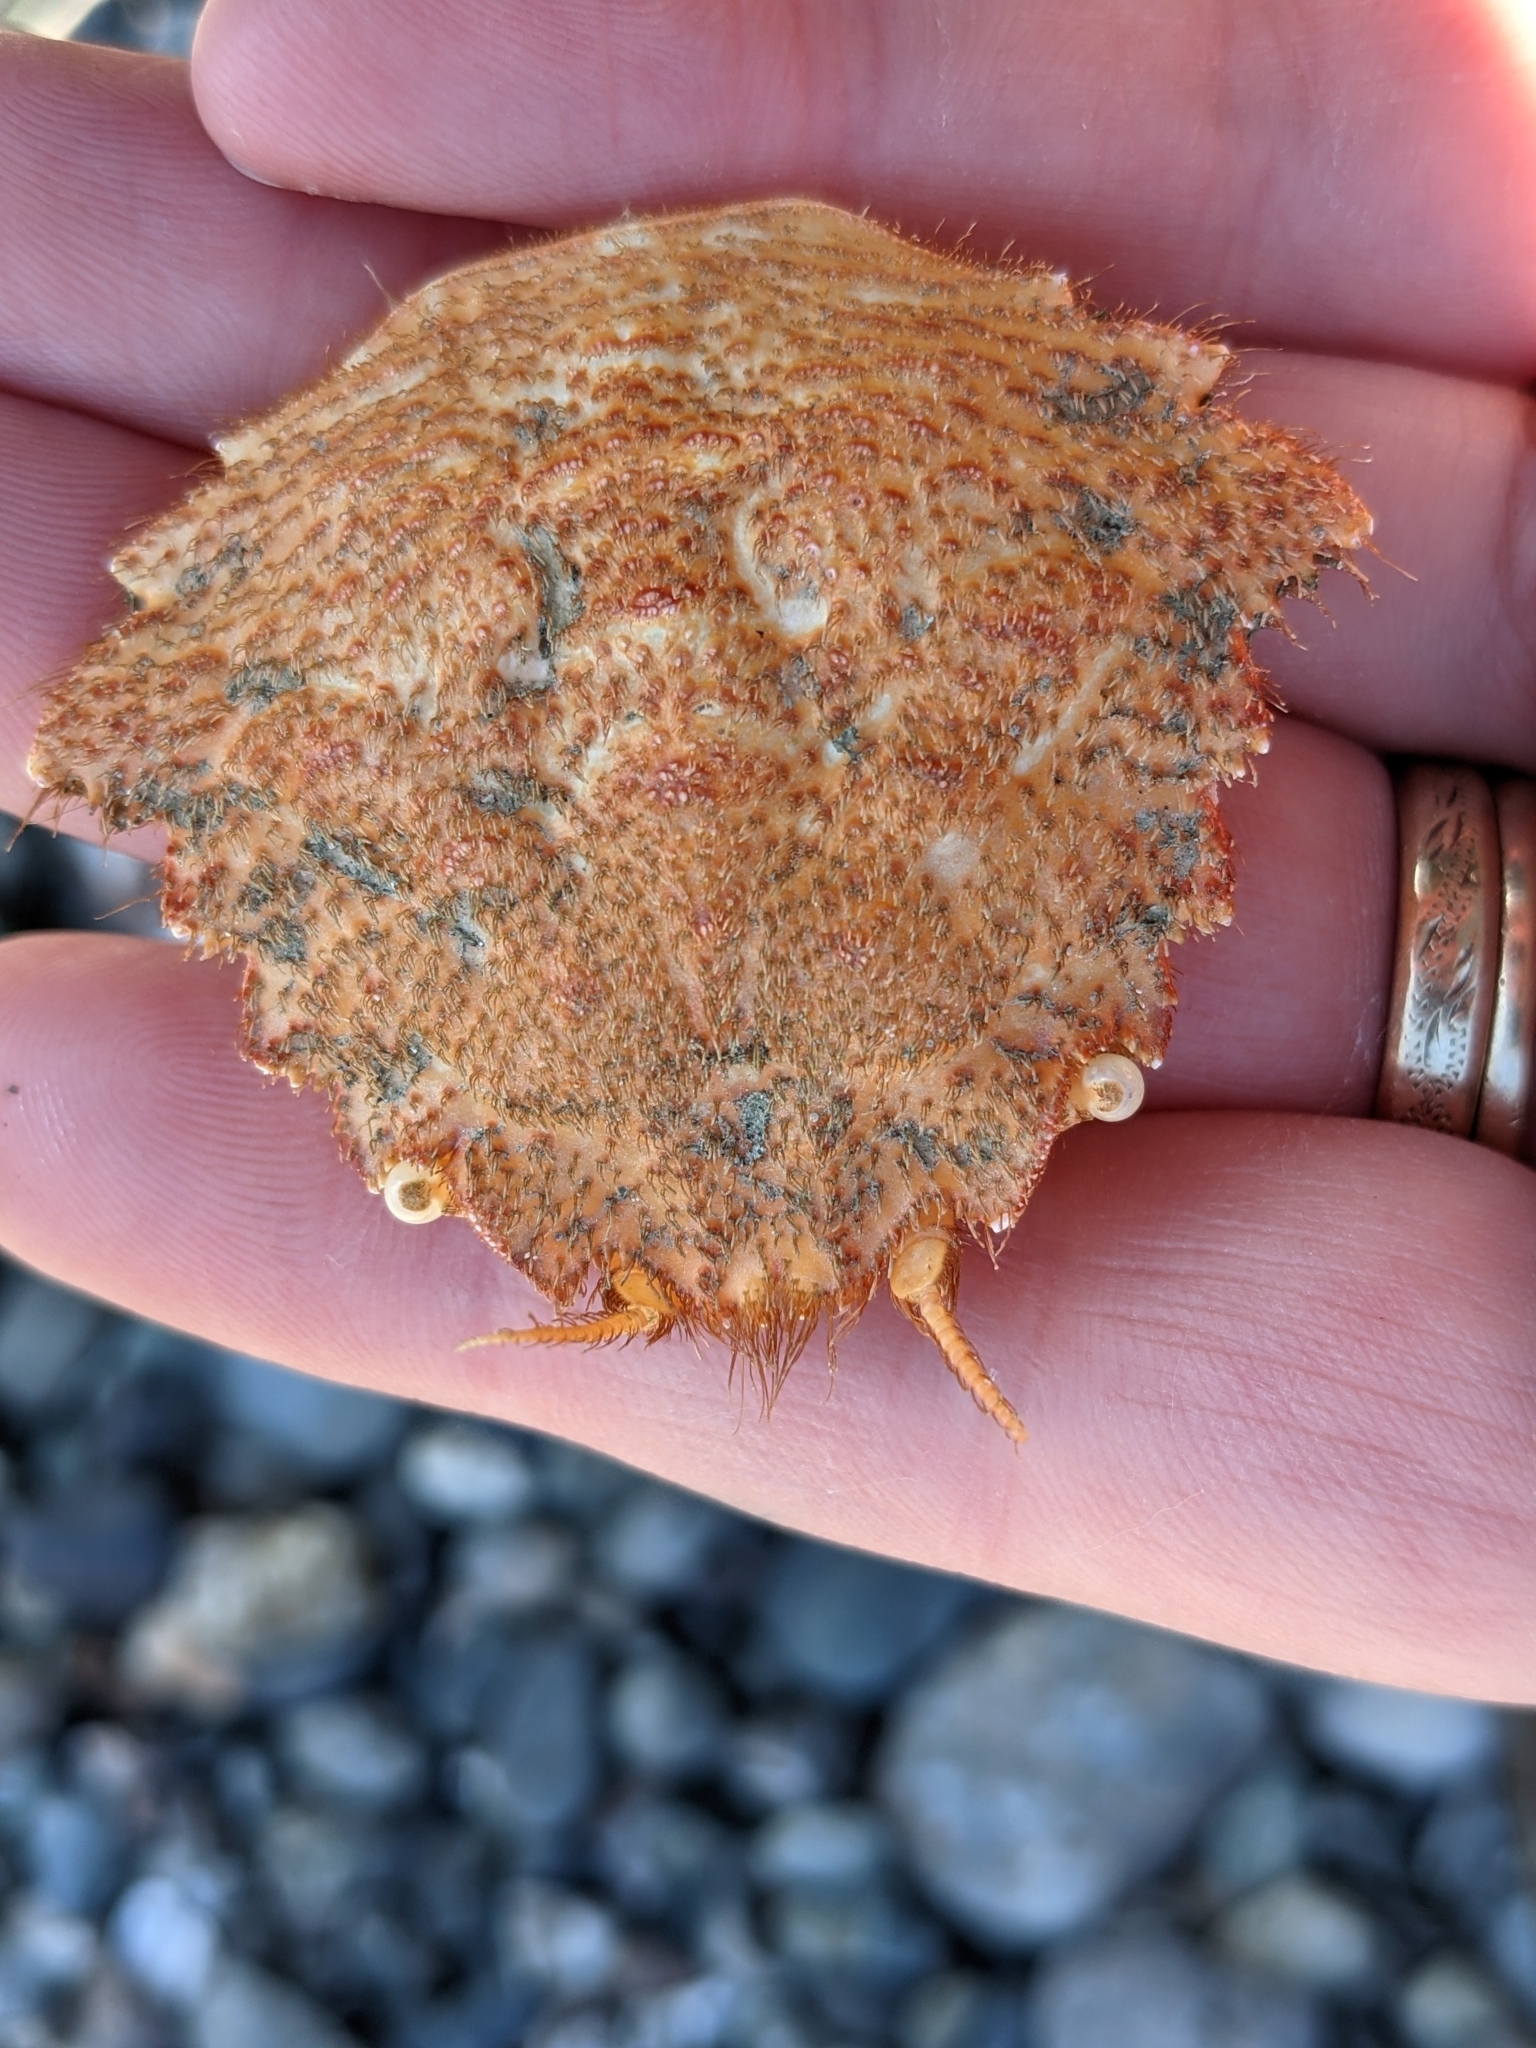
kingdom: Animalia
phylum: Arthropoda
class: Malacostraca
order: Decapoda
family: Cheiragonidae
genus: Telmessus
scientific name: Telmessus cheiragonus
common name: Helmet crab
